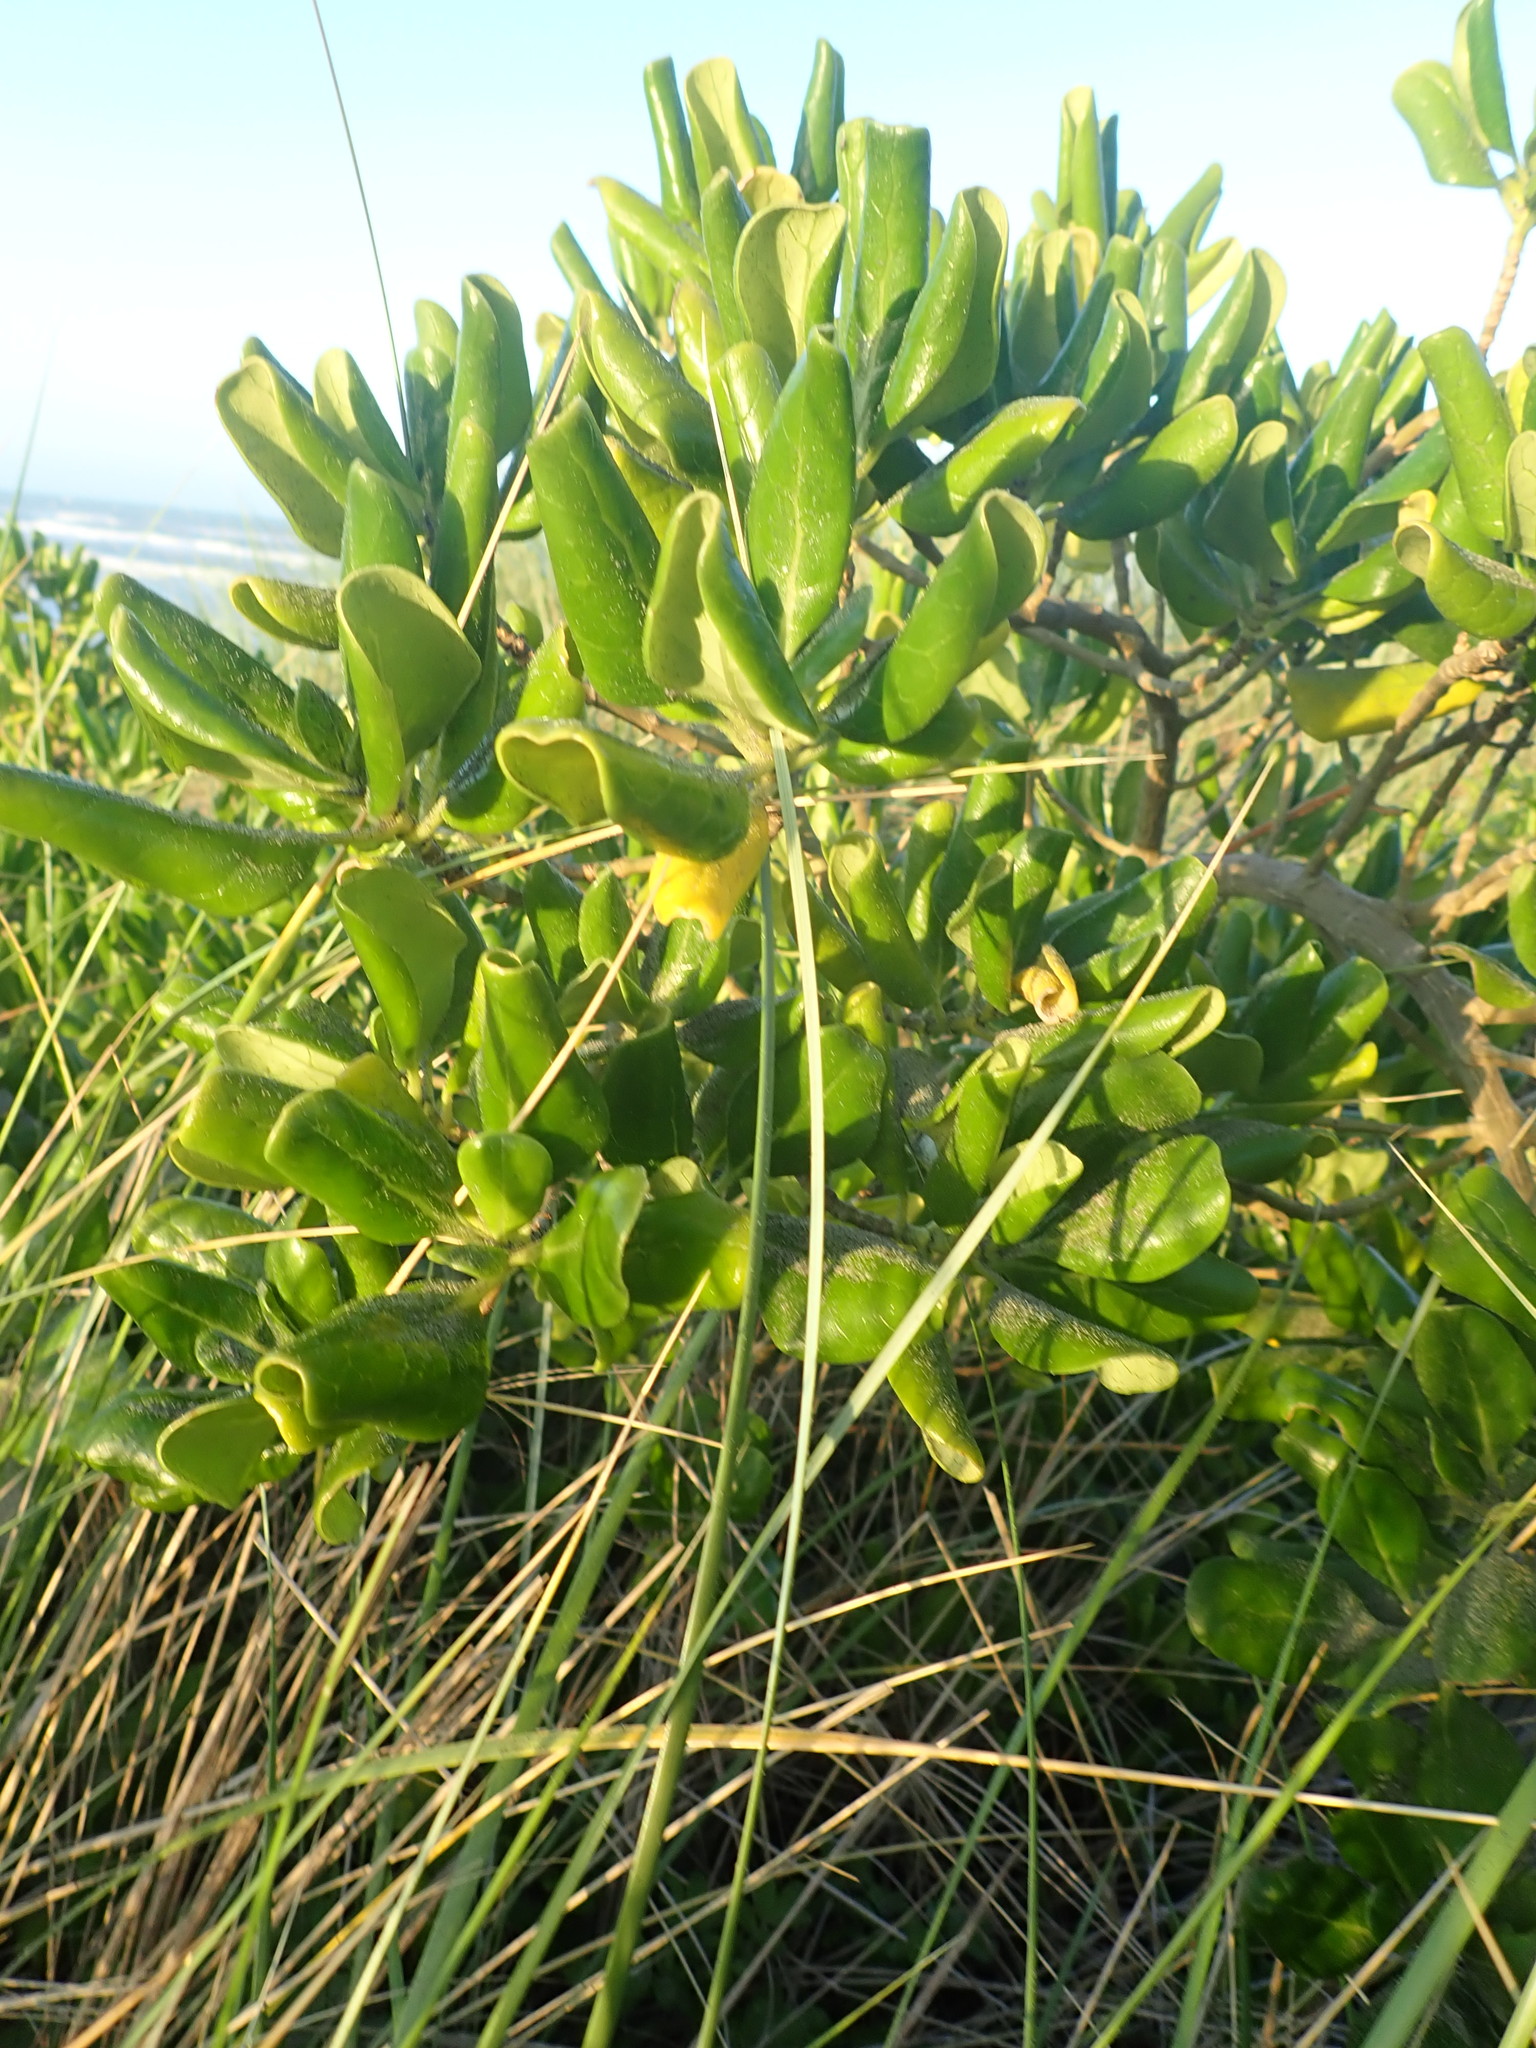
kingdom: Plantae
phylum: Tracheophyta
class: Magnoliopsida
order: Gentianales
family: Rubiaceae
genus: Coprosma
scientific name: Coprosma repens
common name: Tree bedstraw
